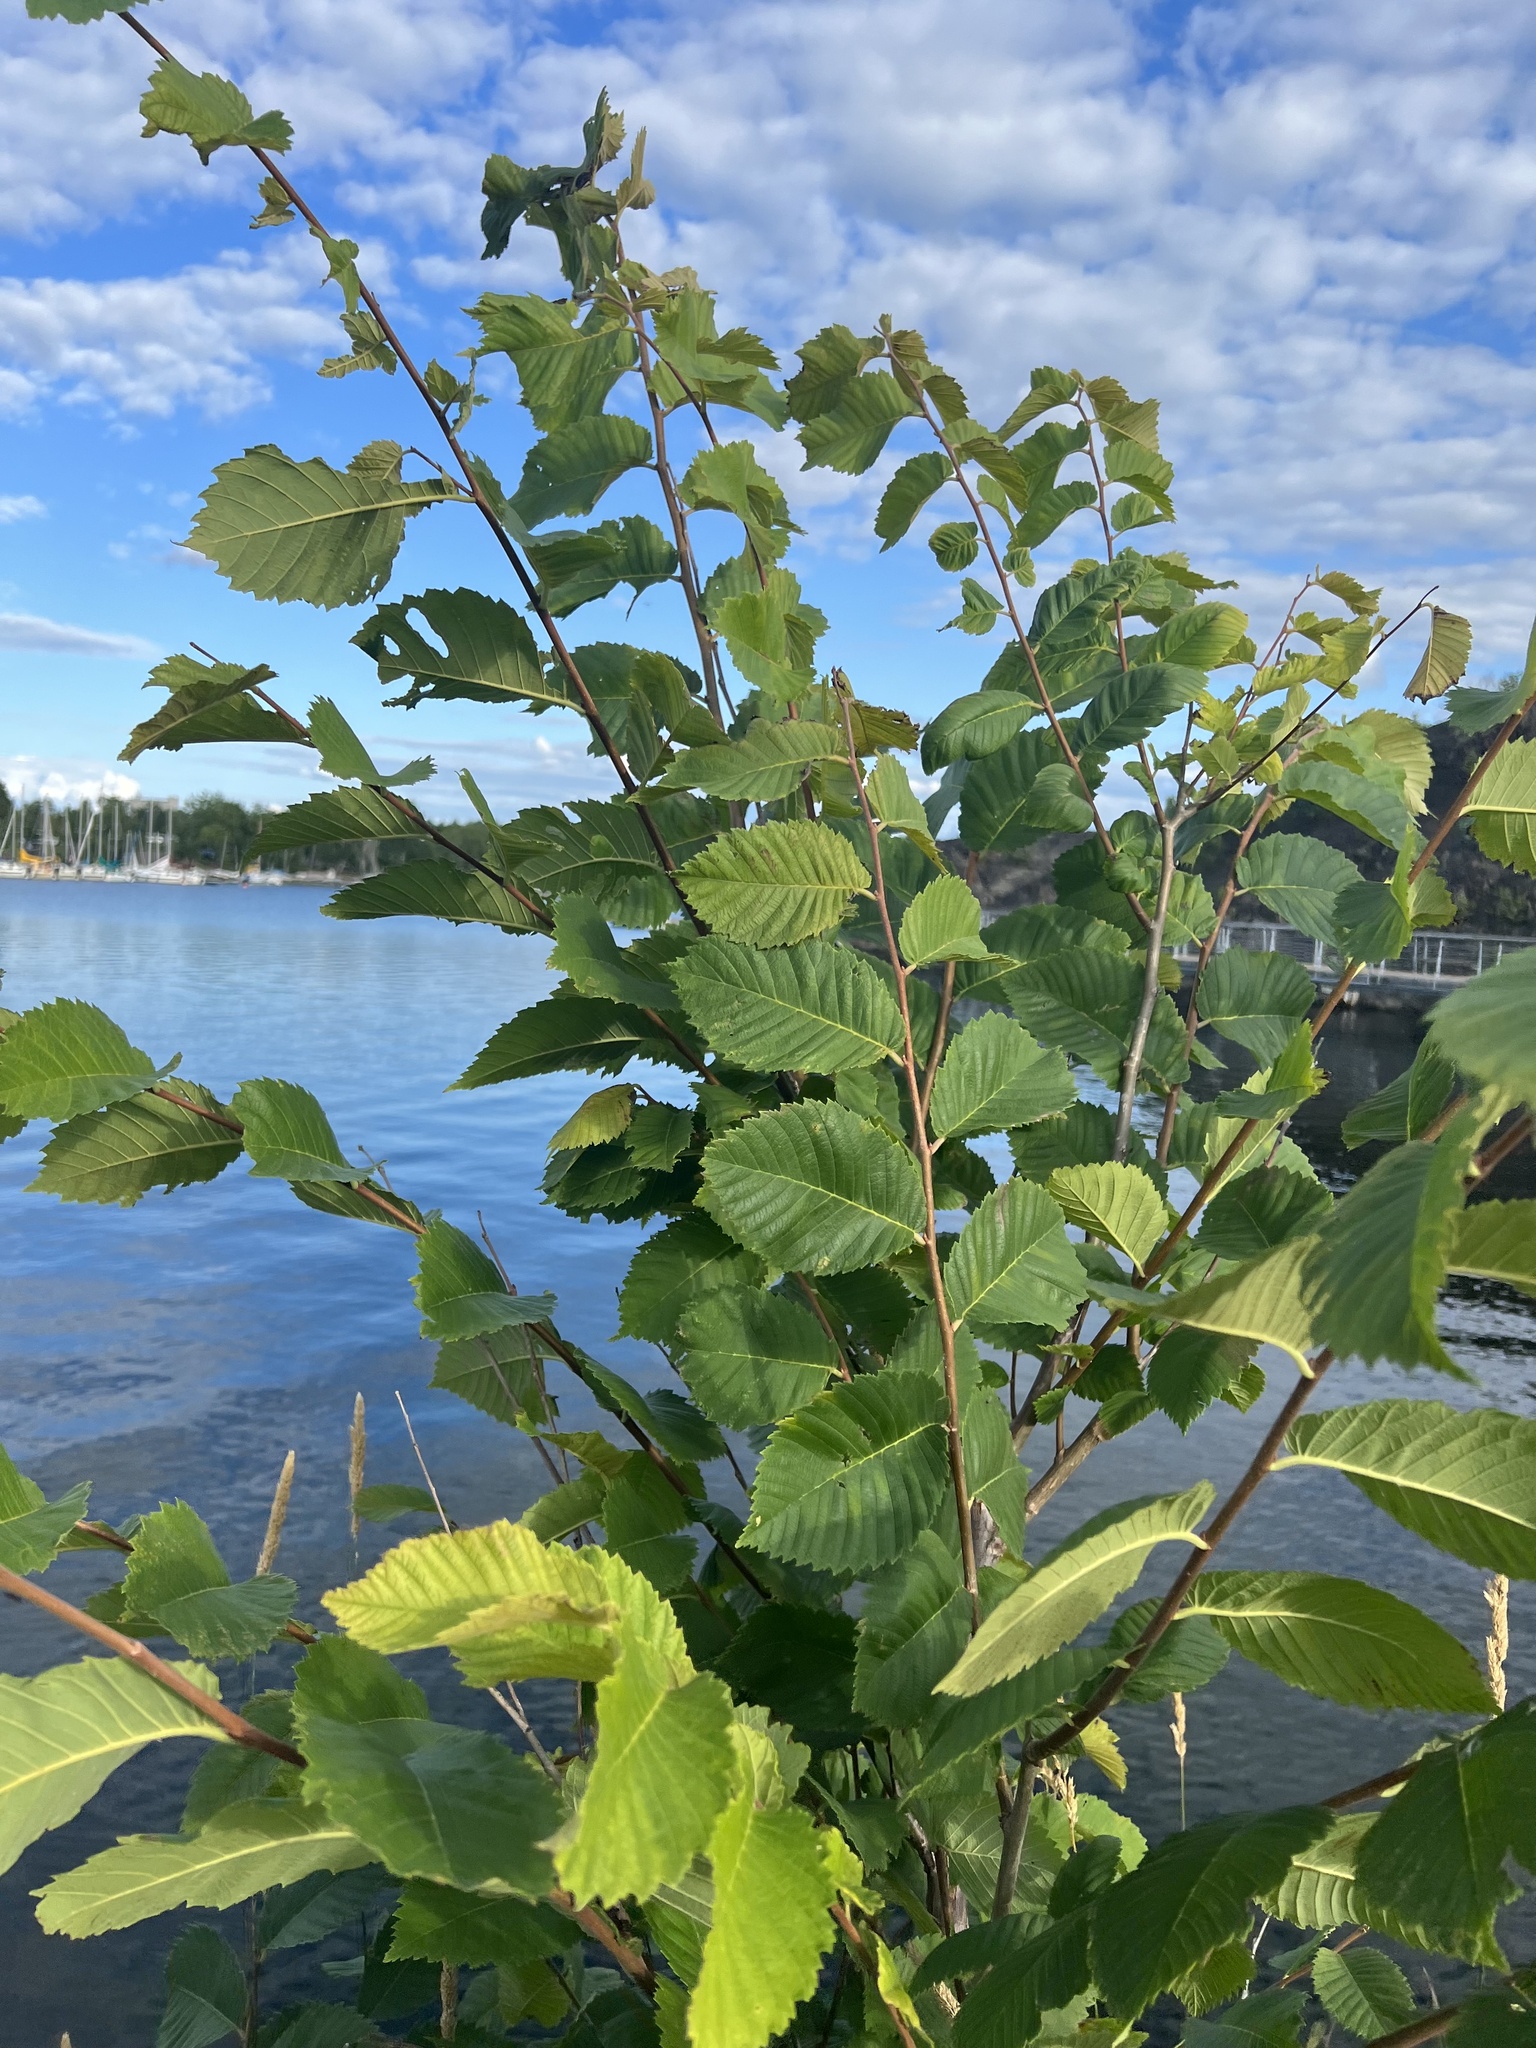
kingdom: Plantae
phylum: Tracheophyta
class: Magnoliopsida
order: Rosales
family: Ulmaceae
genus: Ulmus
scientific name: Ulmus americana
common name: American elm
